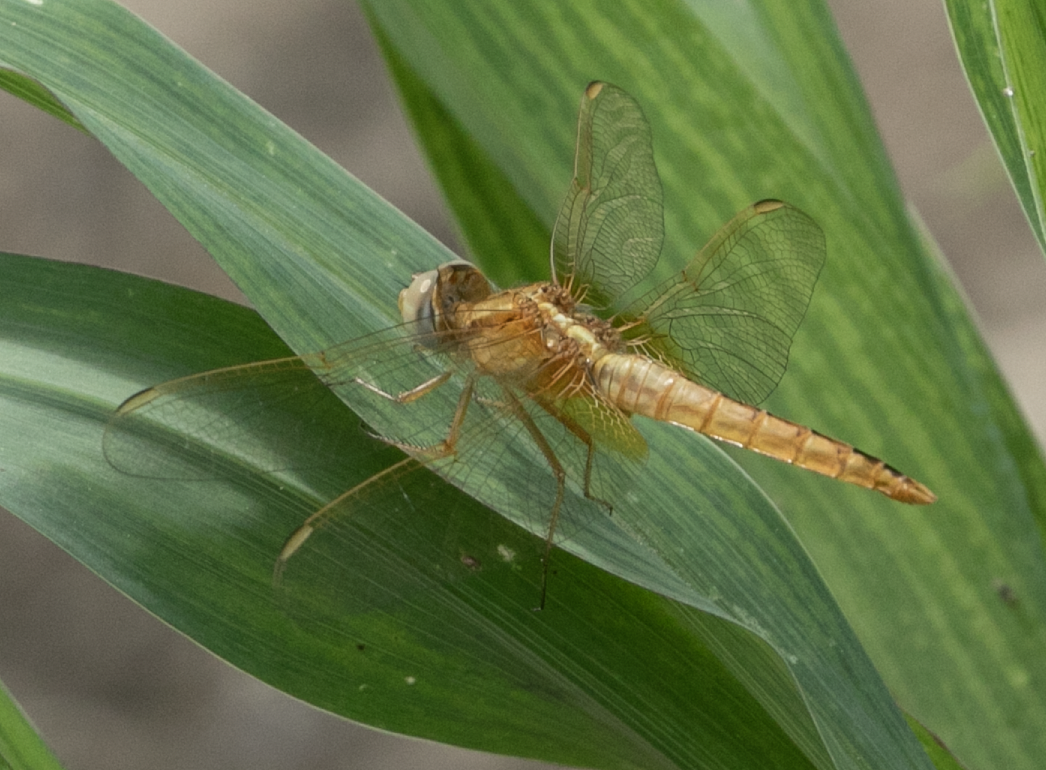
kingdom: Animalia
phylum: Arthropoda
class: Insecta
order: Odonata
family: Libellulidae
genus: Crocothemis
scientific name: Crocothemis erythraea
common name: Scarlet dragonfly
